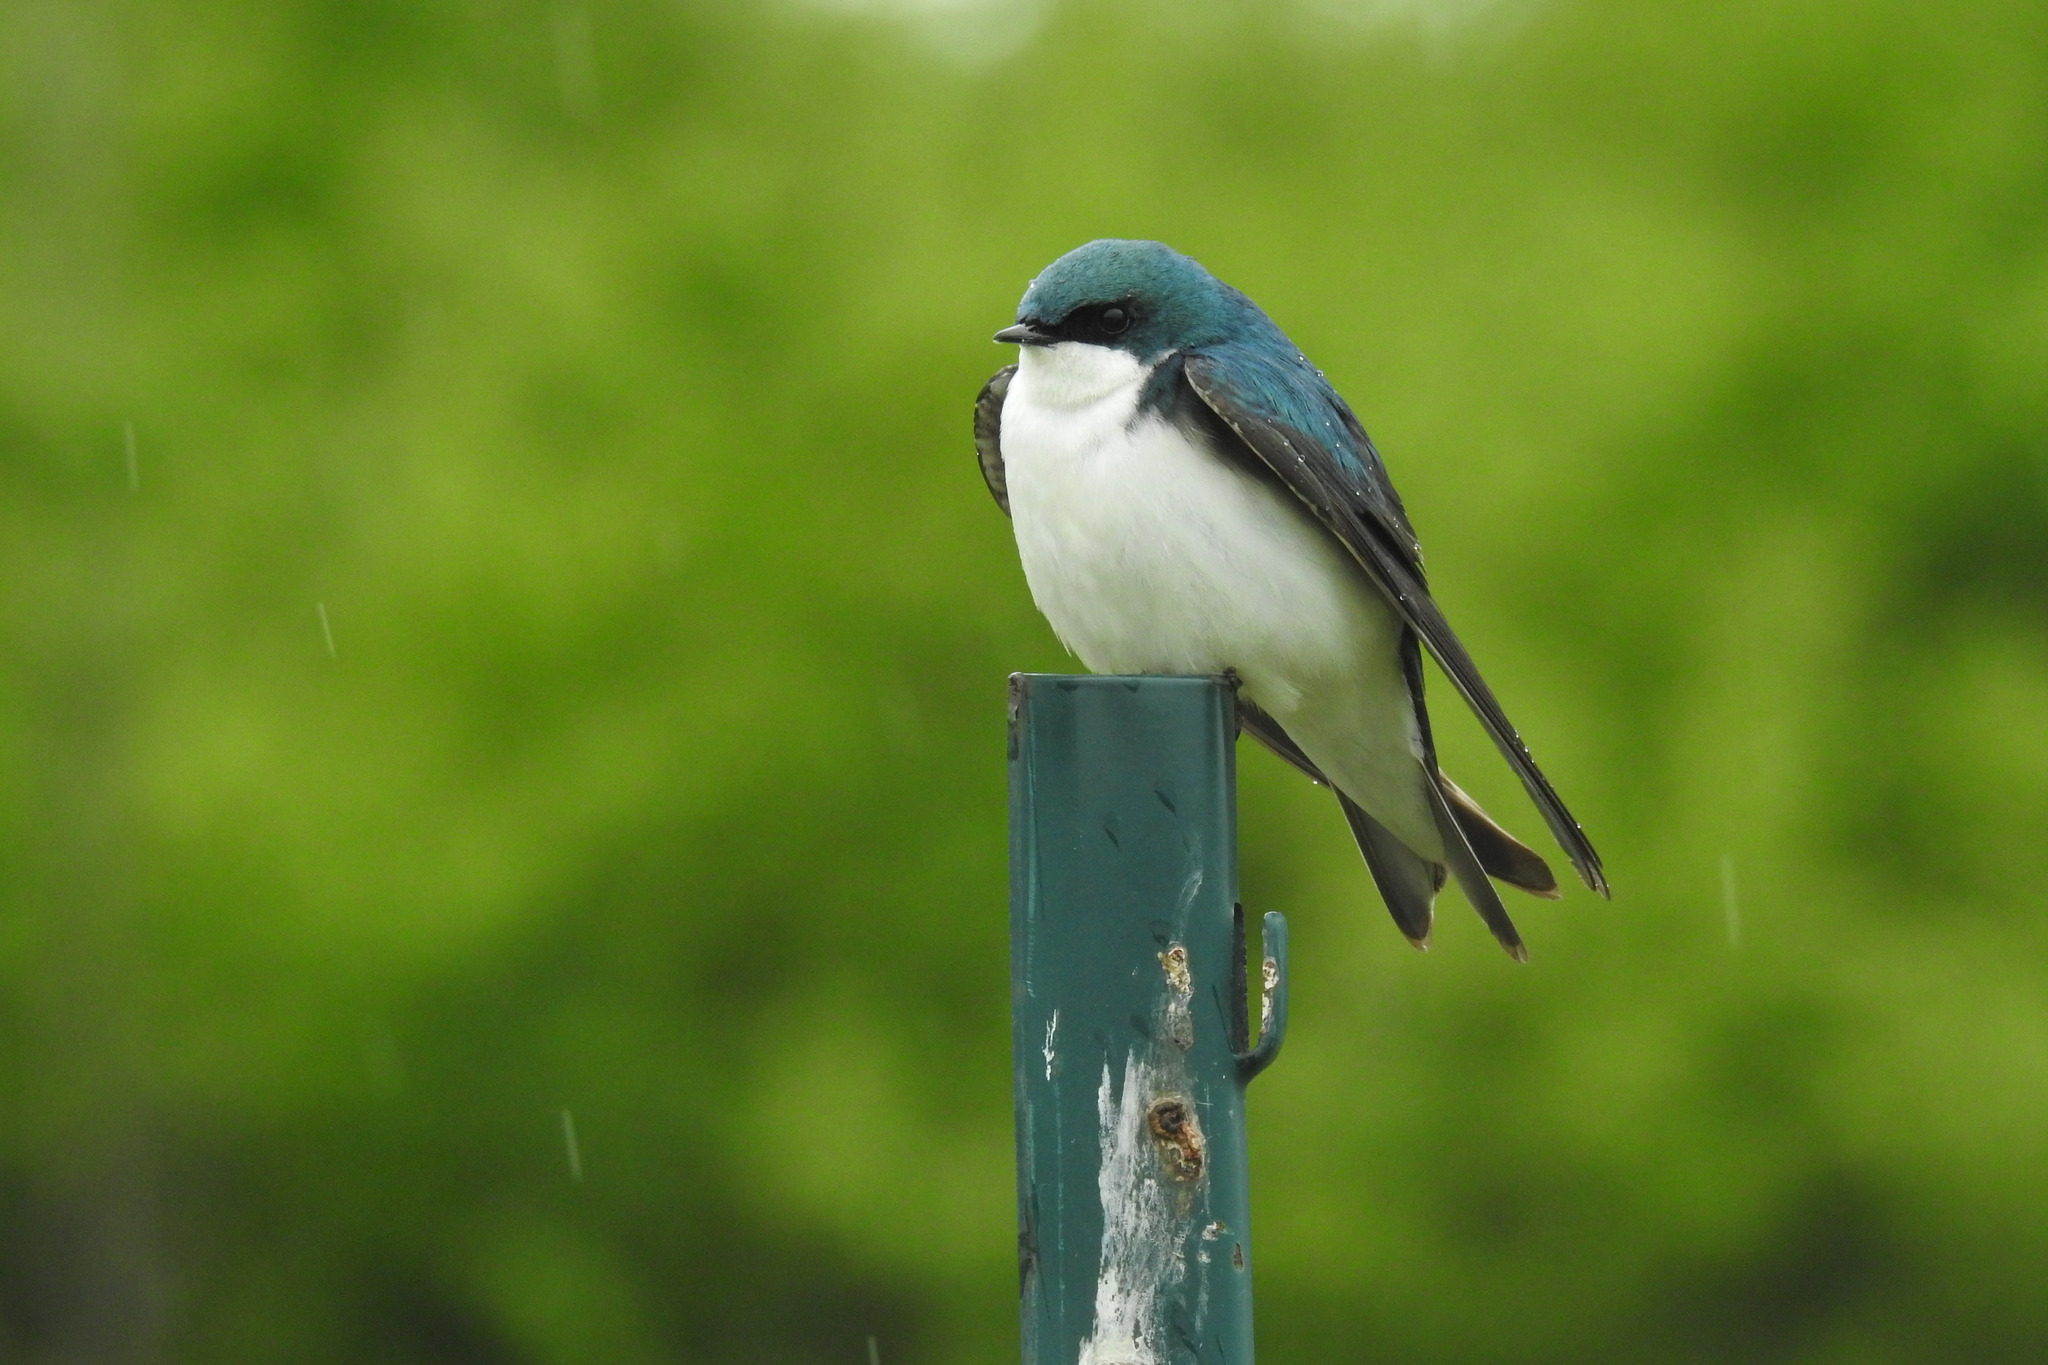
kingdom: Animalia
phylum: Chordata
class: Aves
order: Passeriformes
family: Hirundinidae
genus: Tachycineta
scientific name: Tachycineta bicolor
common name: Tree swallow
